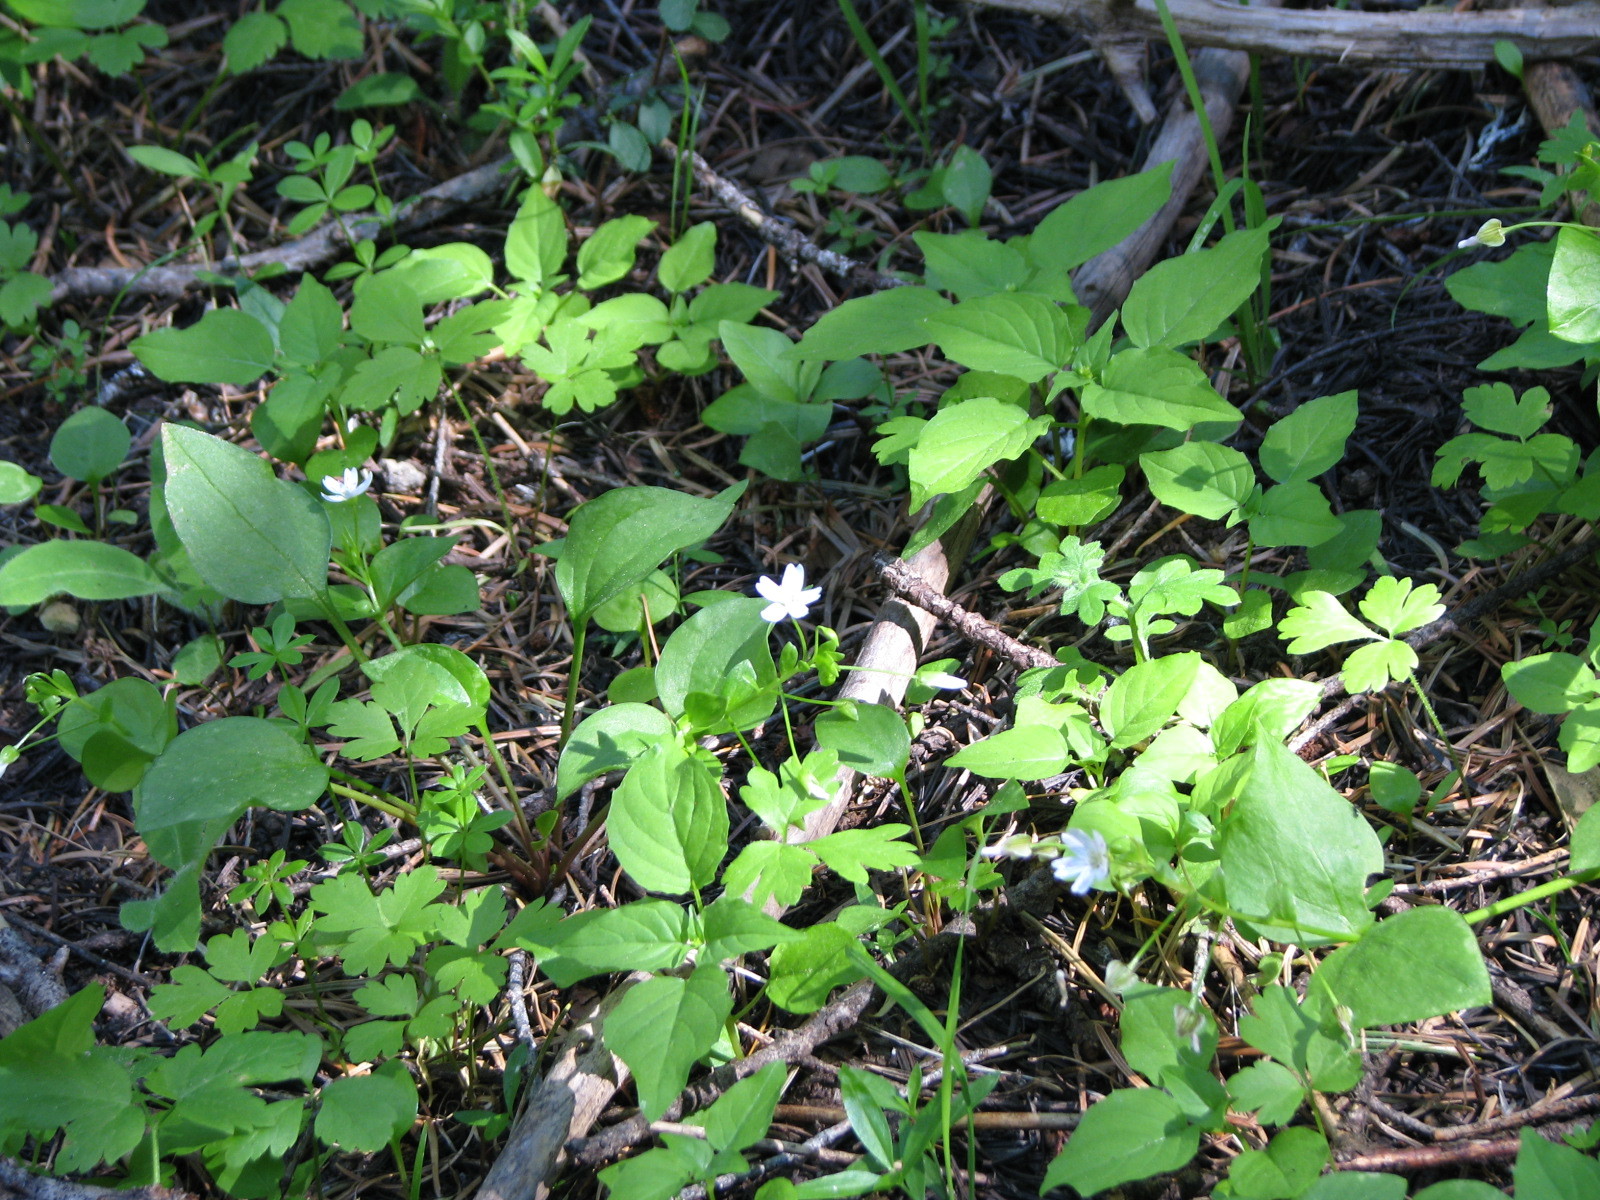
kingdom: Plantae
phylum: Tracheophyta
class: Magnoliopsida
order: Caryophyllales
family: Montiaceae
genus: Claytonia
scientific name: Claytonia sibirica
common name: Pink purslane
